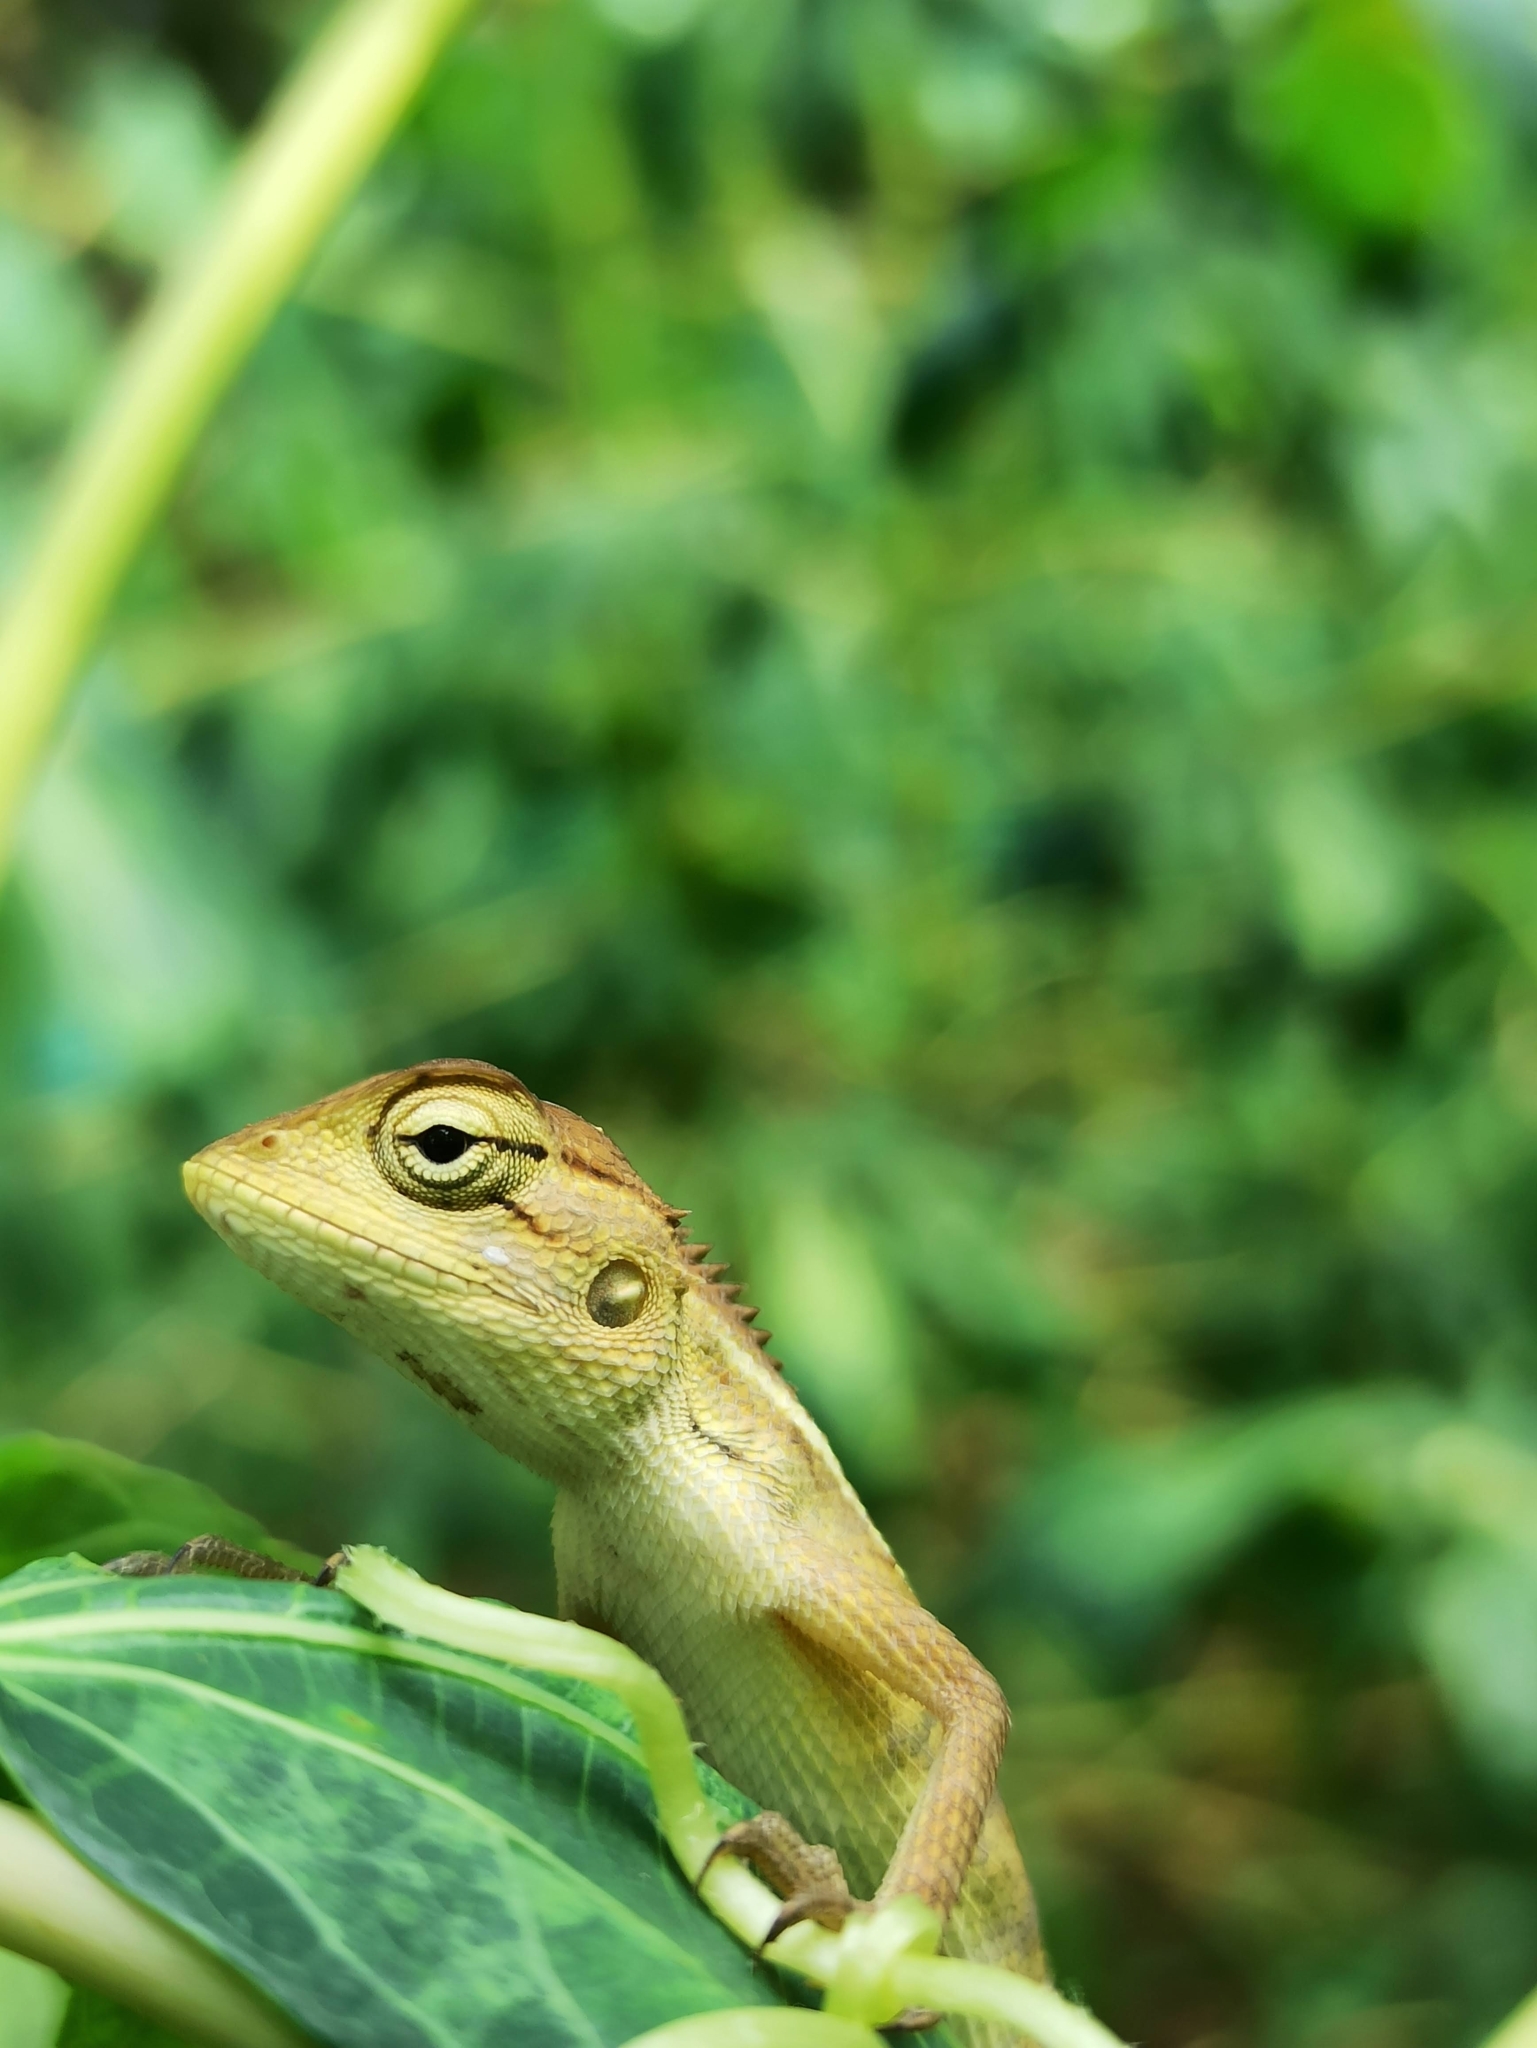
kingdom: Animalia
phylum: Chordata
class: Squamata
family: Agamidae
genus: Calotes
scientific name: Calotes versicolor
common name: Oriental garden lizard
